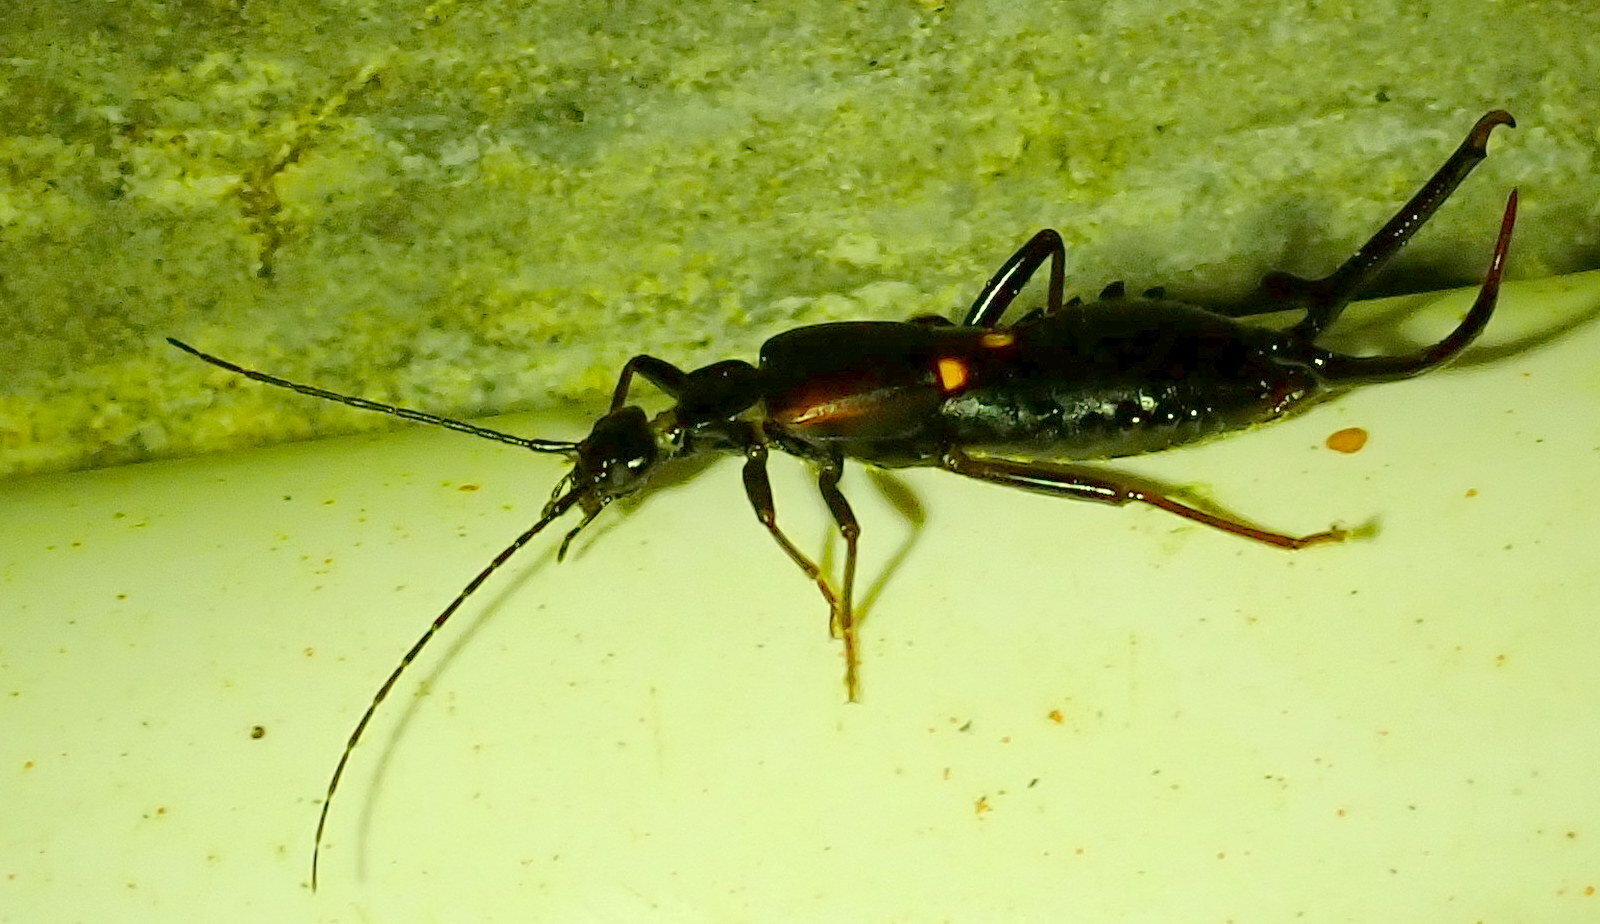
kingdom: Animalia
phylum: Arthropoda
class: Insecta
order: Dermaptera
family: Forficulidae
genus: Eparchus
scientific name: Eparchus insignis
